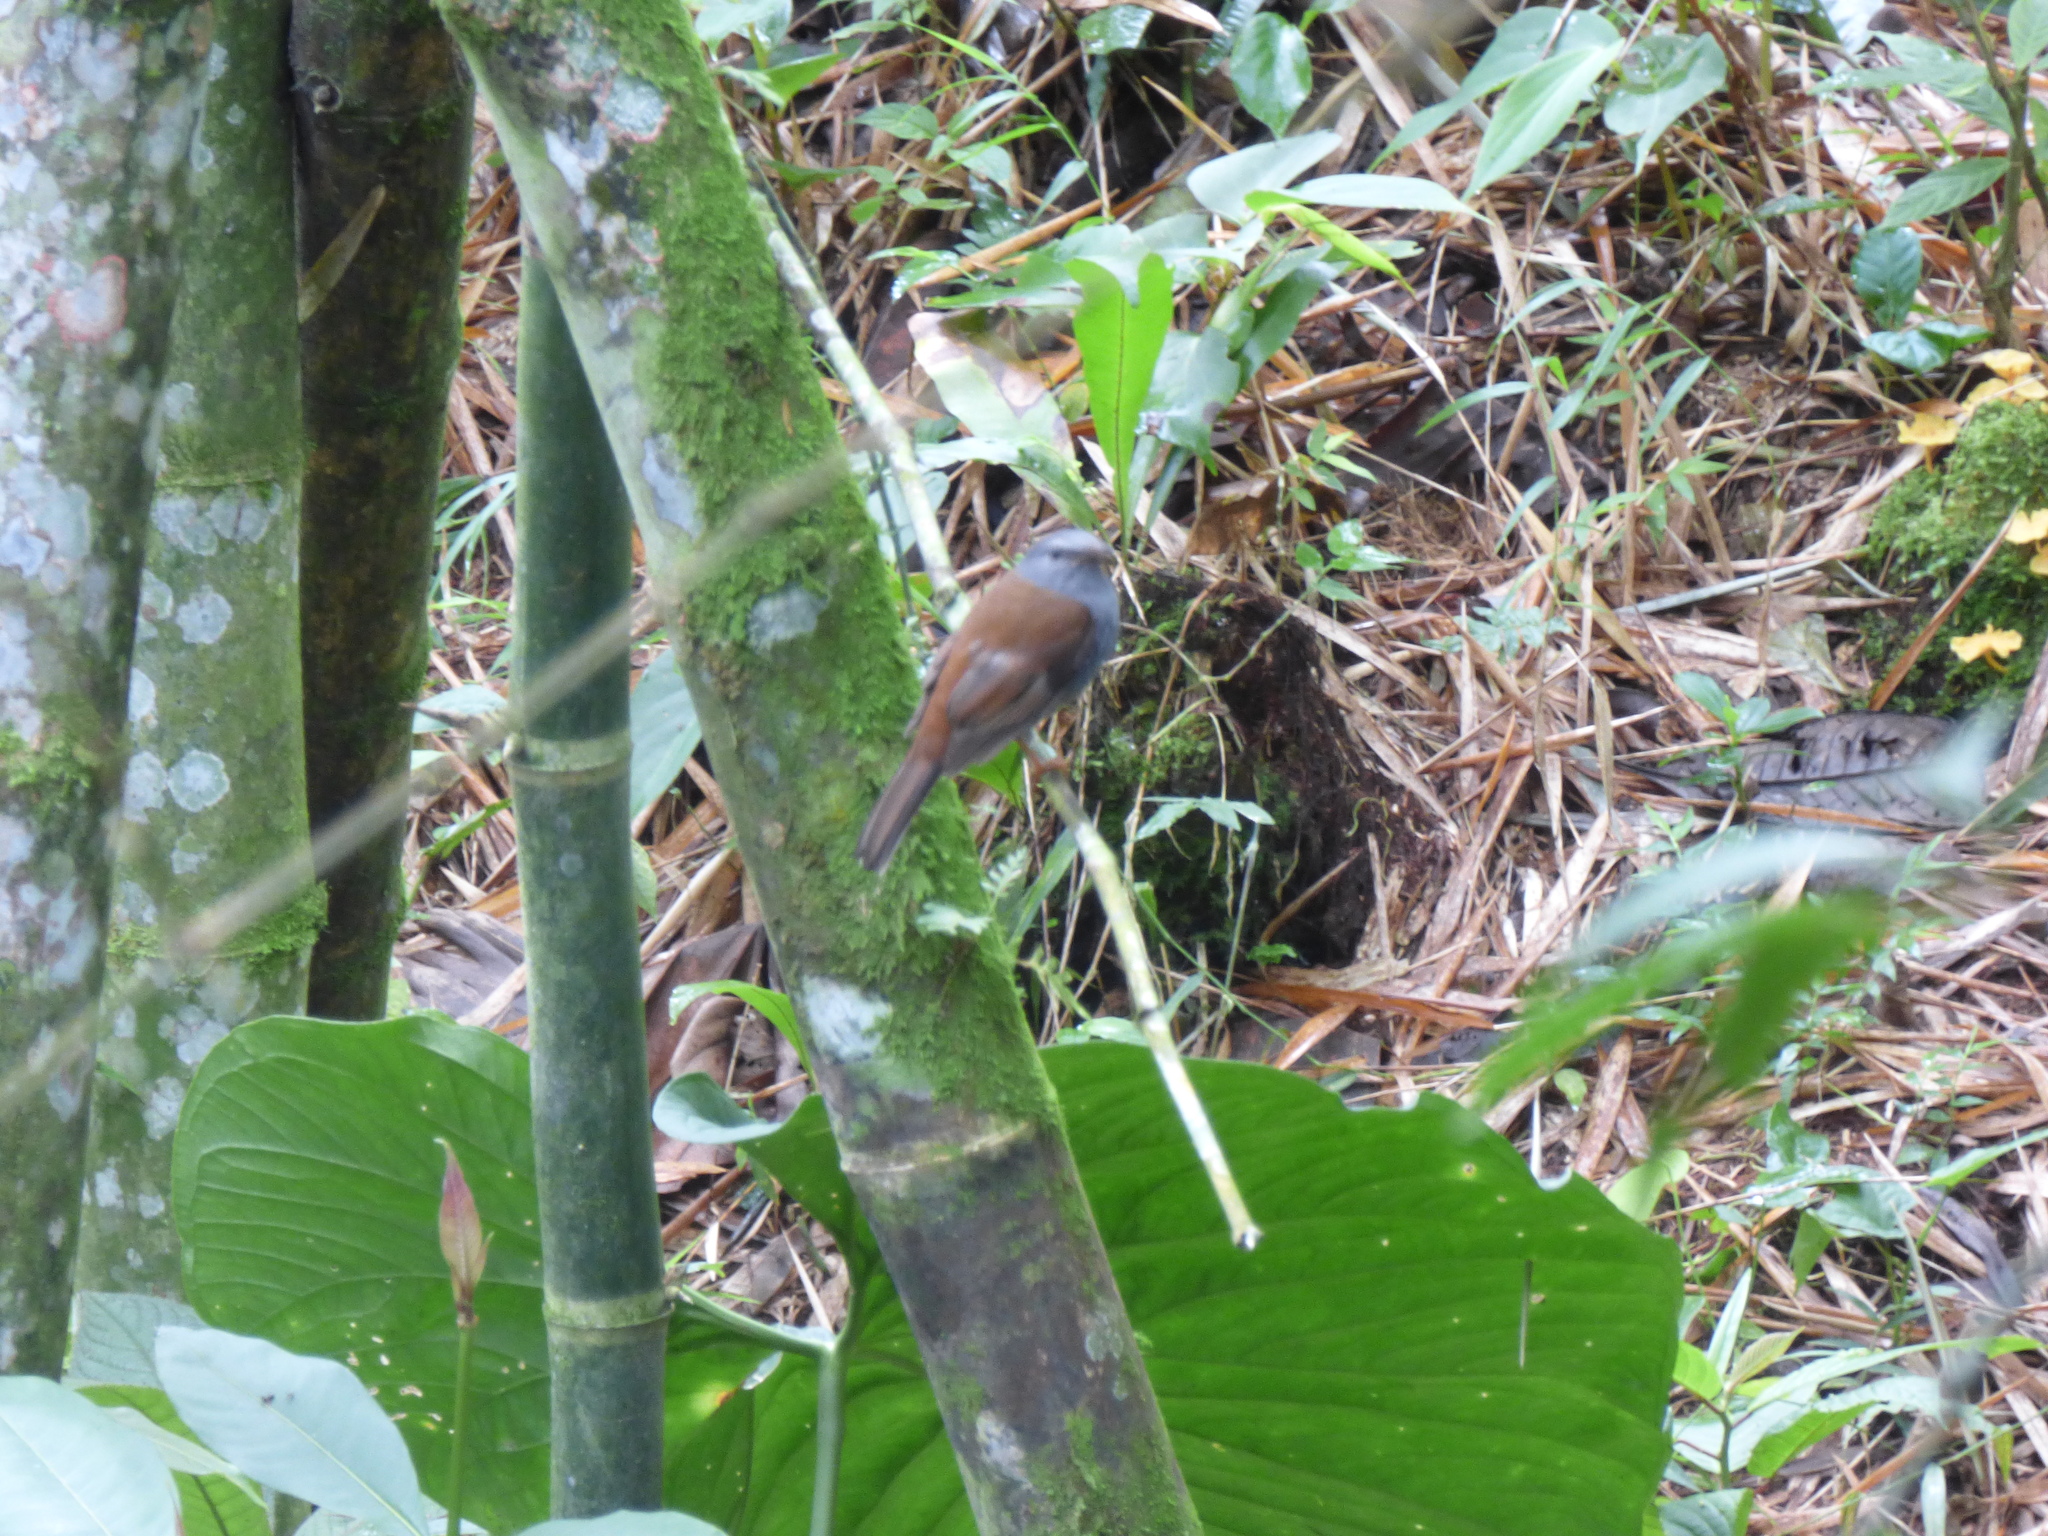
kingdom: Animalia
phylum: Chordata
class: Aves
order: Passeriformes
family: Turdidae
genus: Myadestes
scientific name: Myadestes ralloides
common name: Andean solitaire
